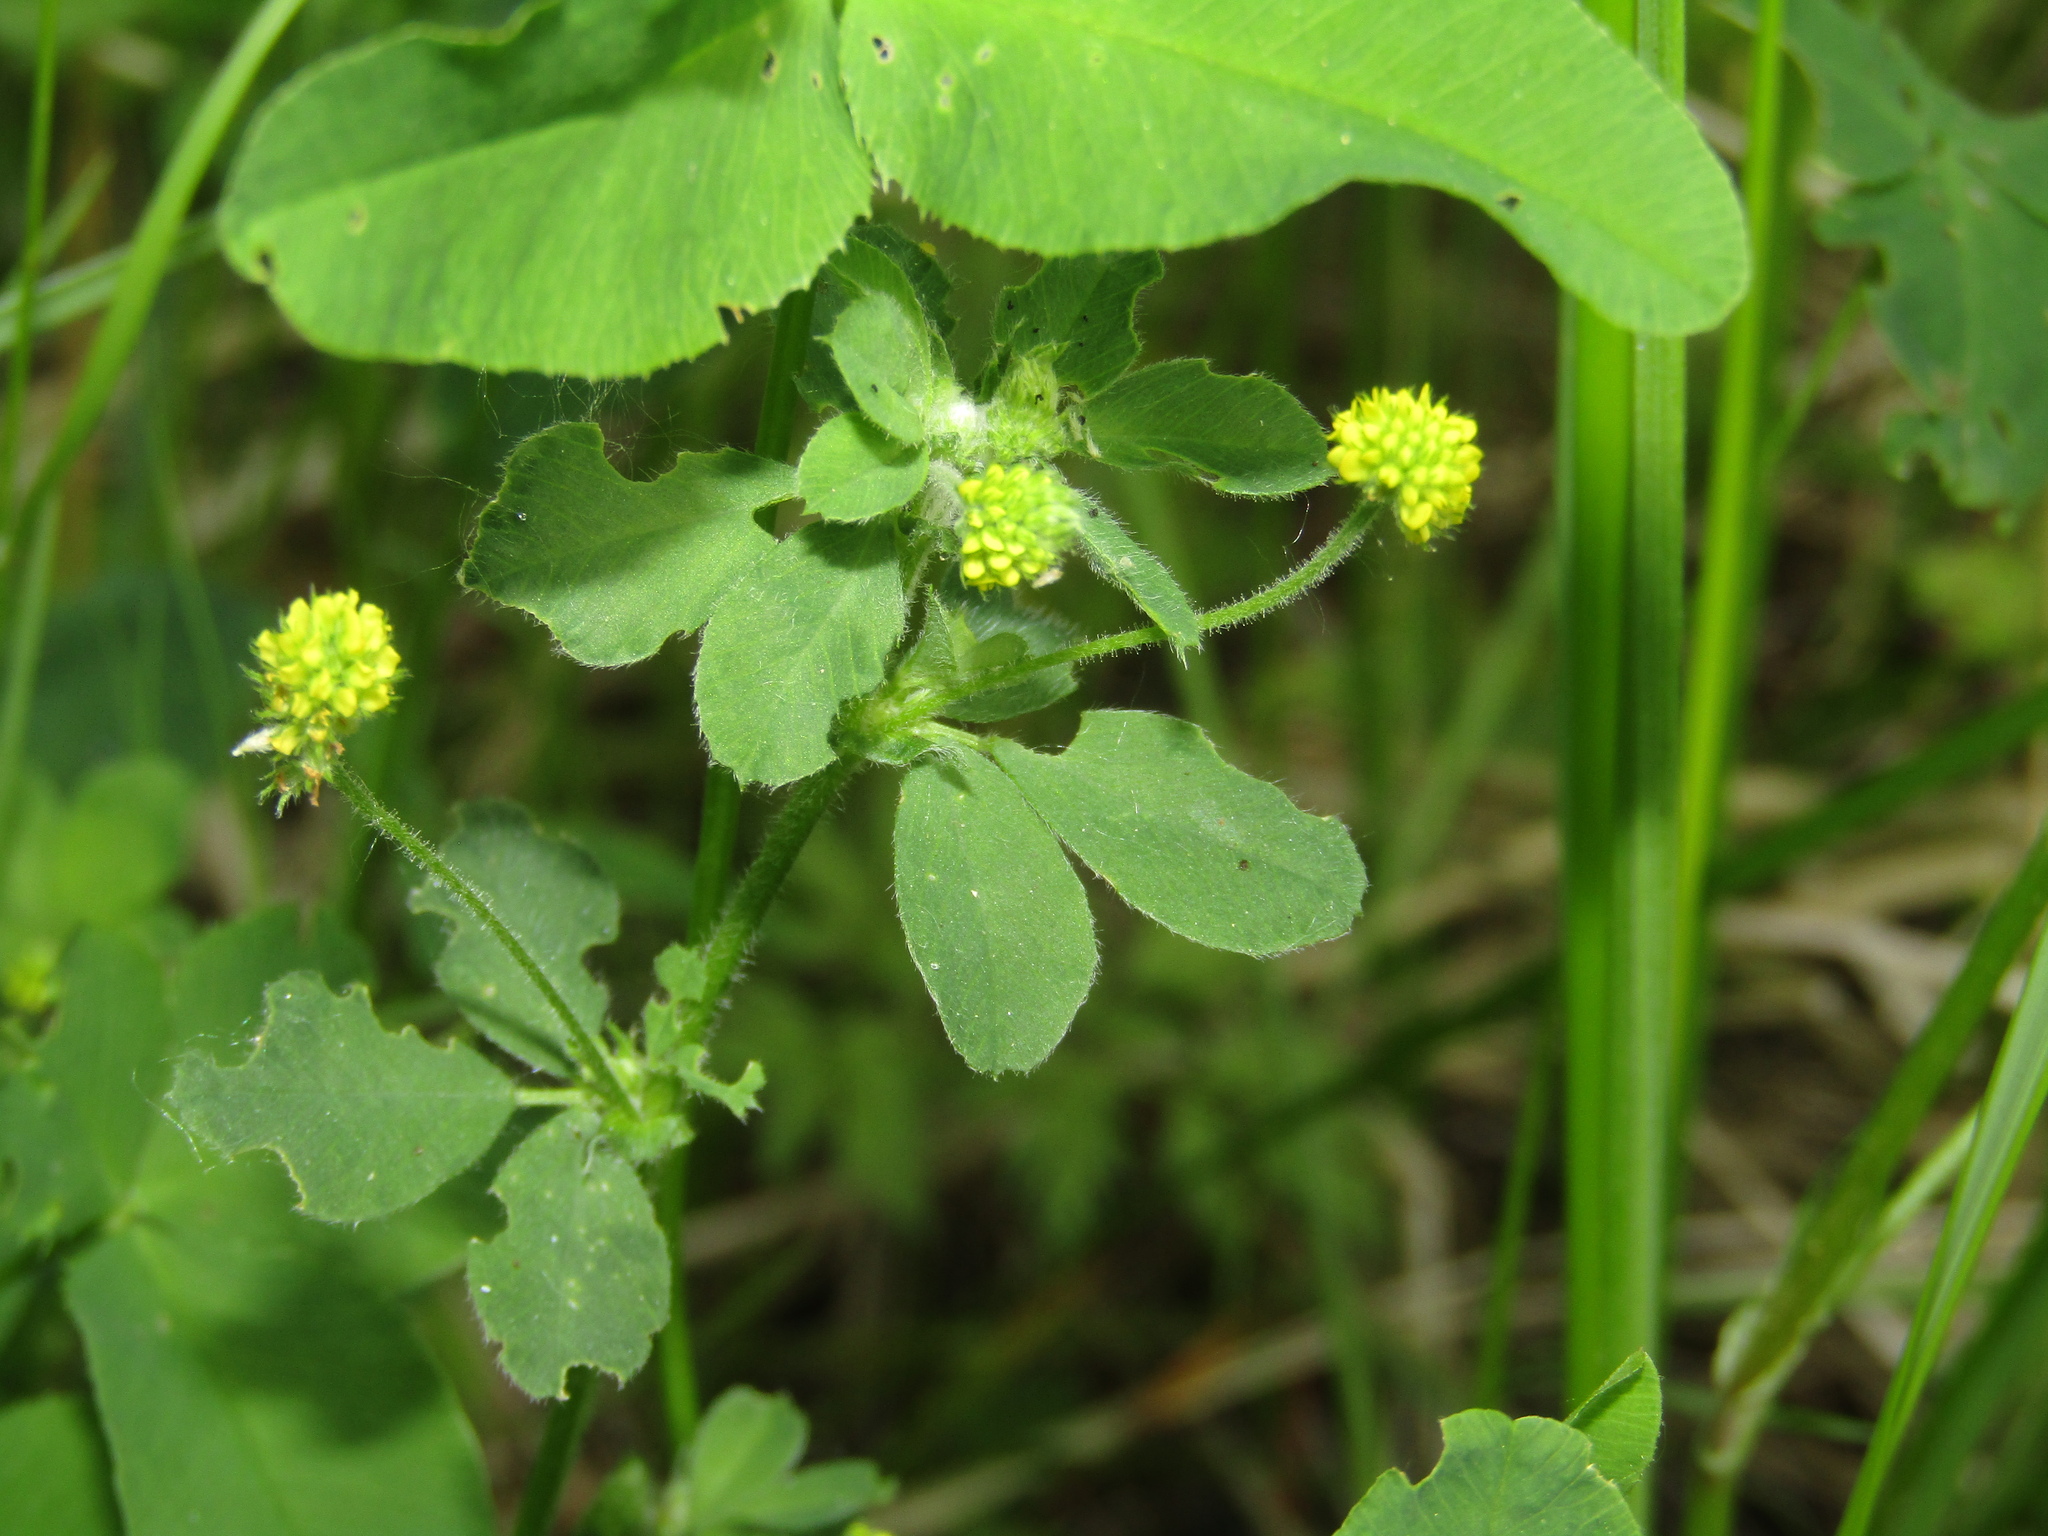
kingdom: Plantae
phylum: Tracheophyta
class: Magnoliopsida
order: Fabales
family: Fabaceae
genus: Medicago
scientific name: Medicago lupulina
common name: Black medick
